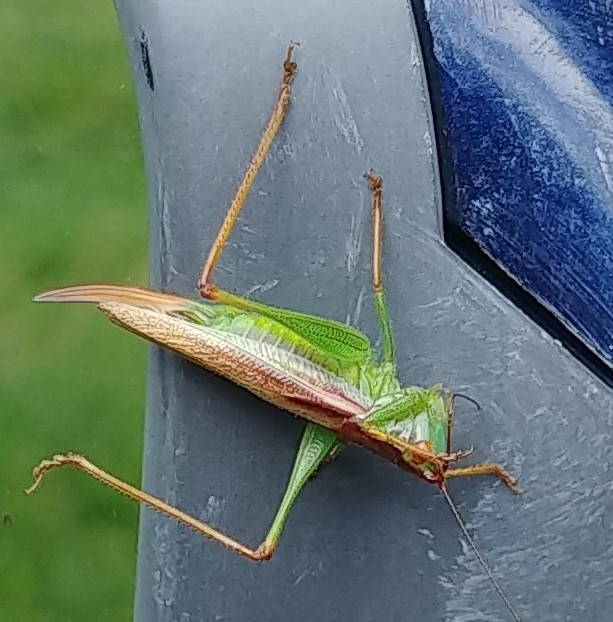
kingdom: Animalia
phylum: Arthropoda
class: Insecta
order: Orthoptera
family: Tettigoniidae
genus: Orchelimum
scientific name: Orchelimum minor
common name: Lesser pine meadow katydid
